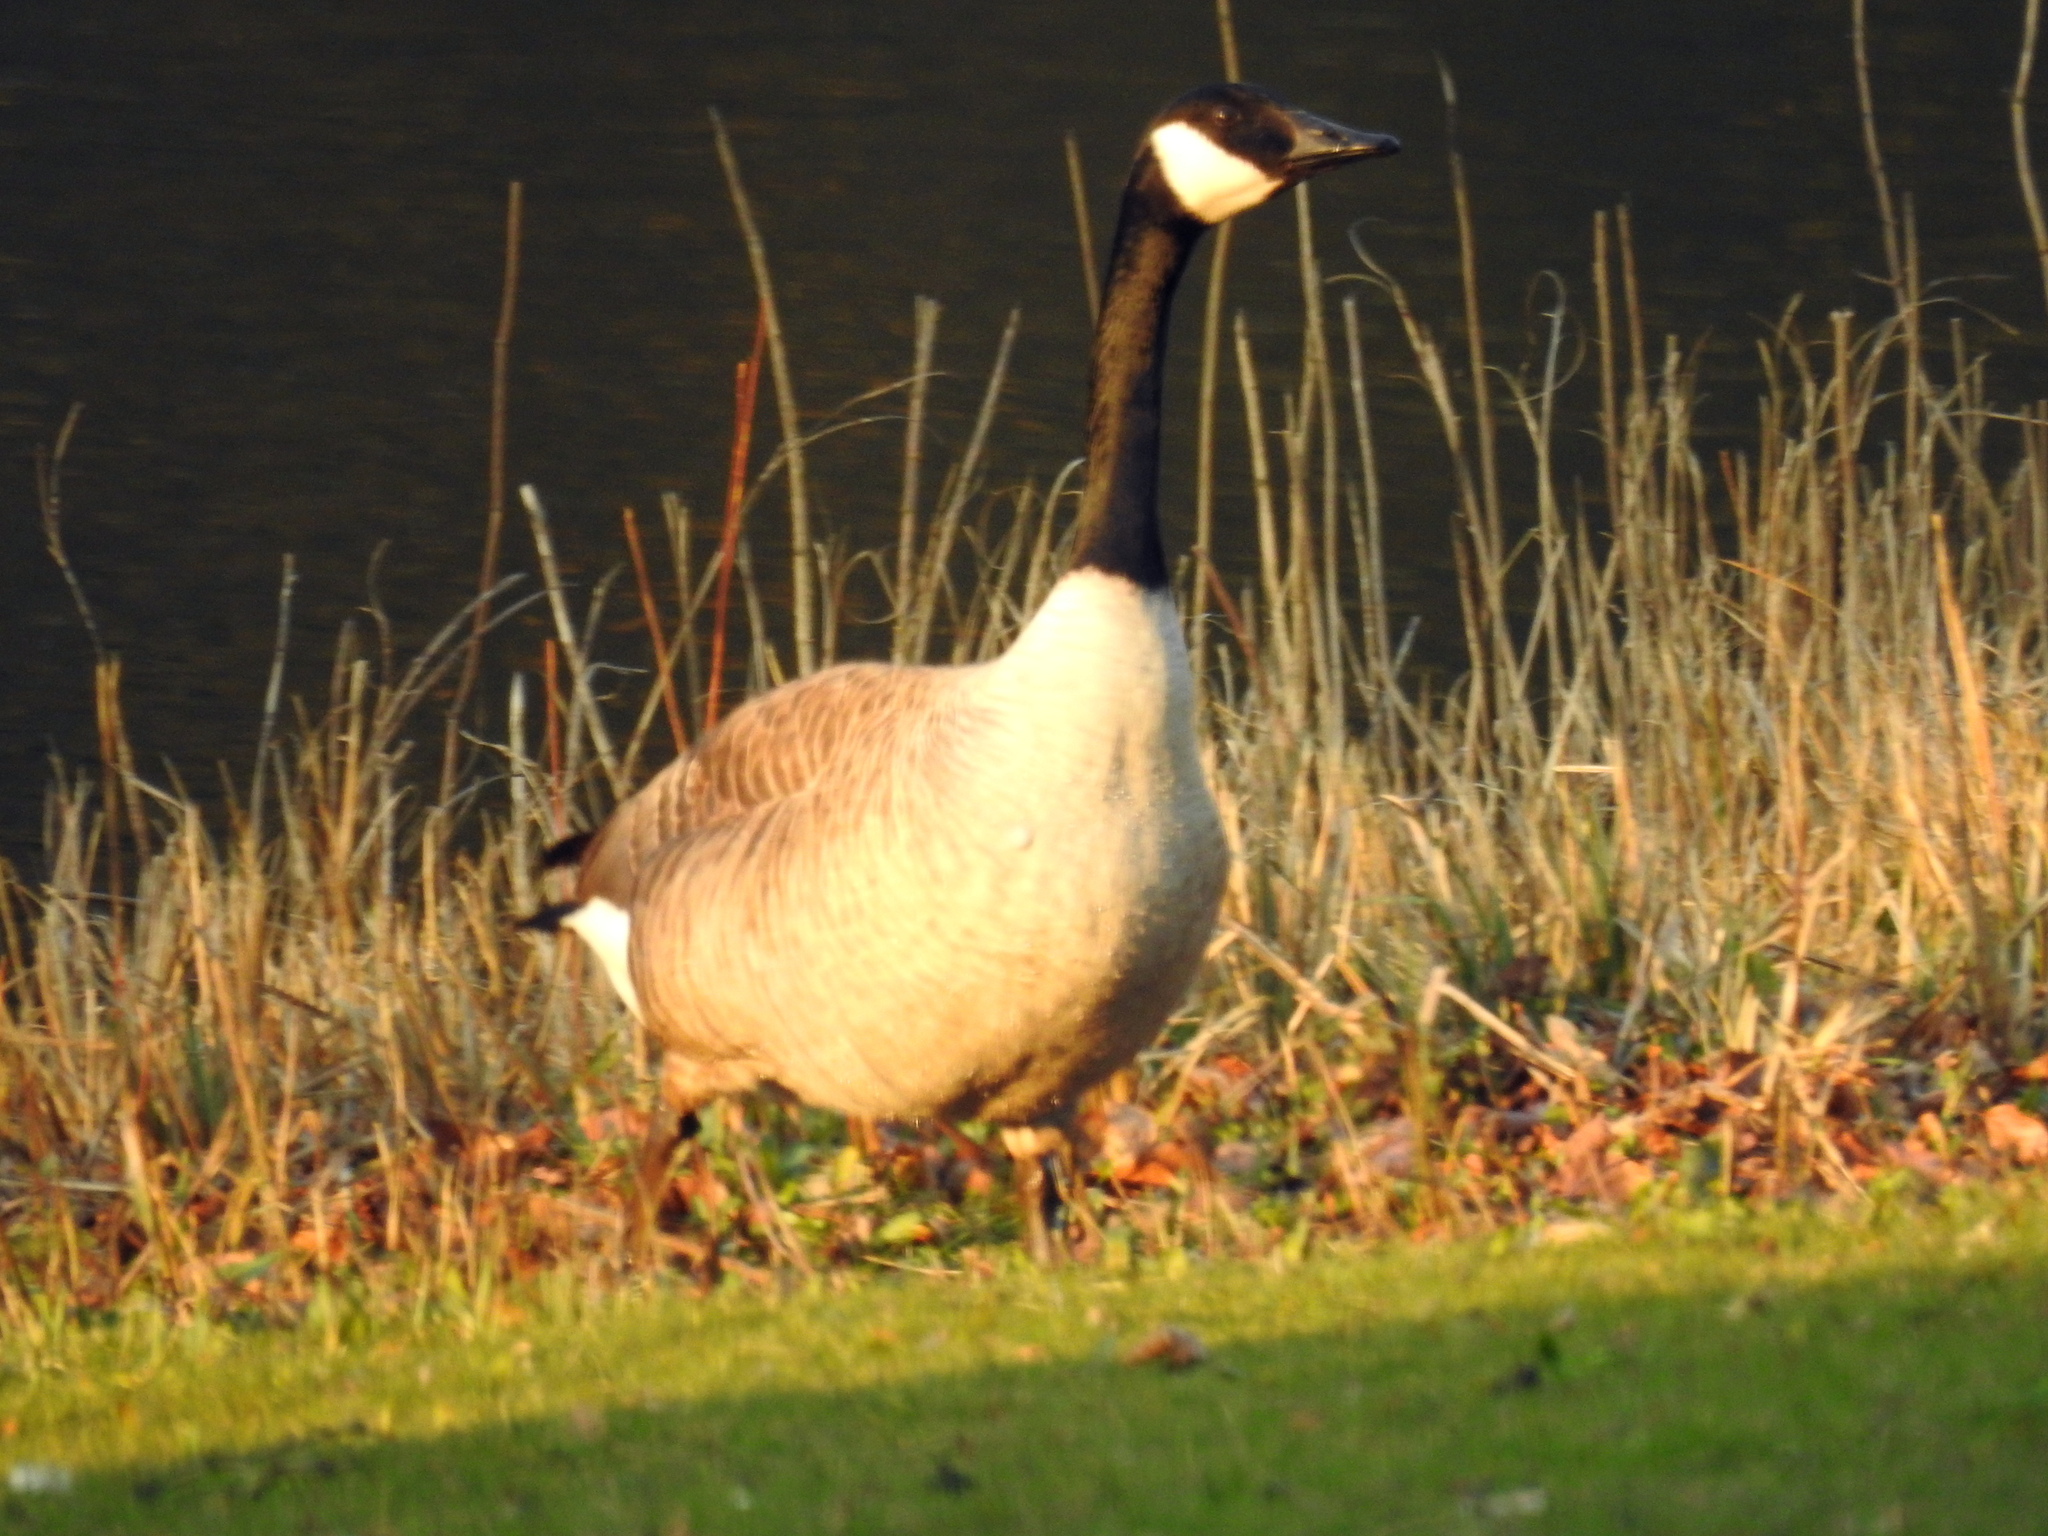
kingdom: Animalia
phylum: Chordata
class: Aves
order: Anseriformes
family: Anatidae
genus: Branta
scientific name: Branta canadensis
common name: Canada goose
